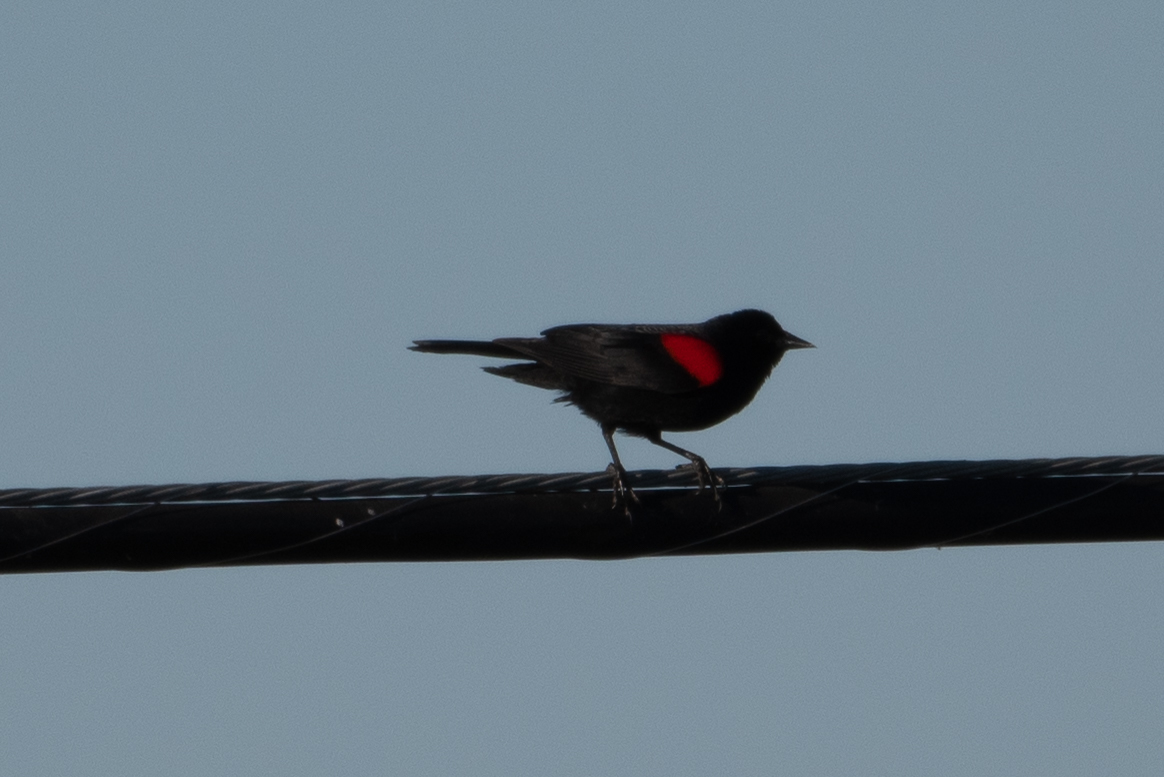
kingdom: Animalia
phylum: Chordata
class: Aves
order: Passeriformes
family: Icteridae
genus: Agelaius
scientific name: Agelaius phoeniceus
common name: Red-winged blackbird
